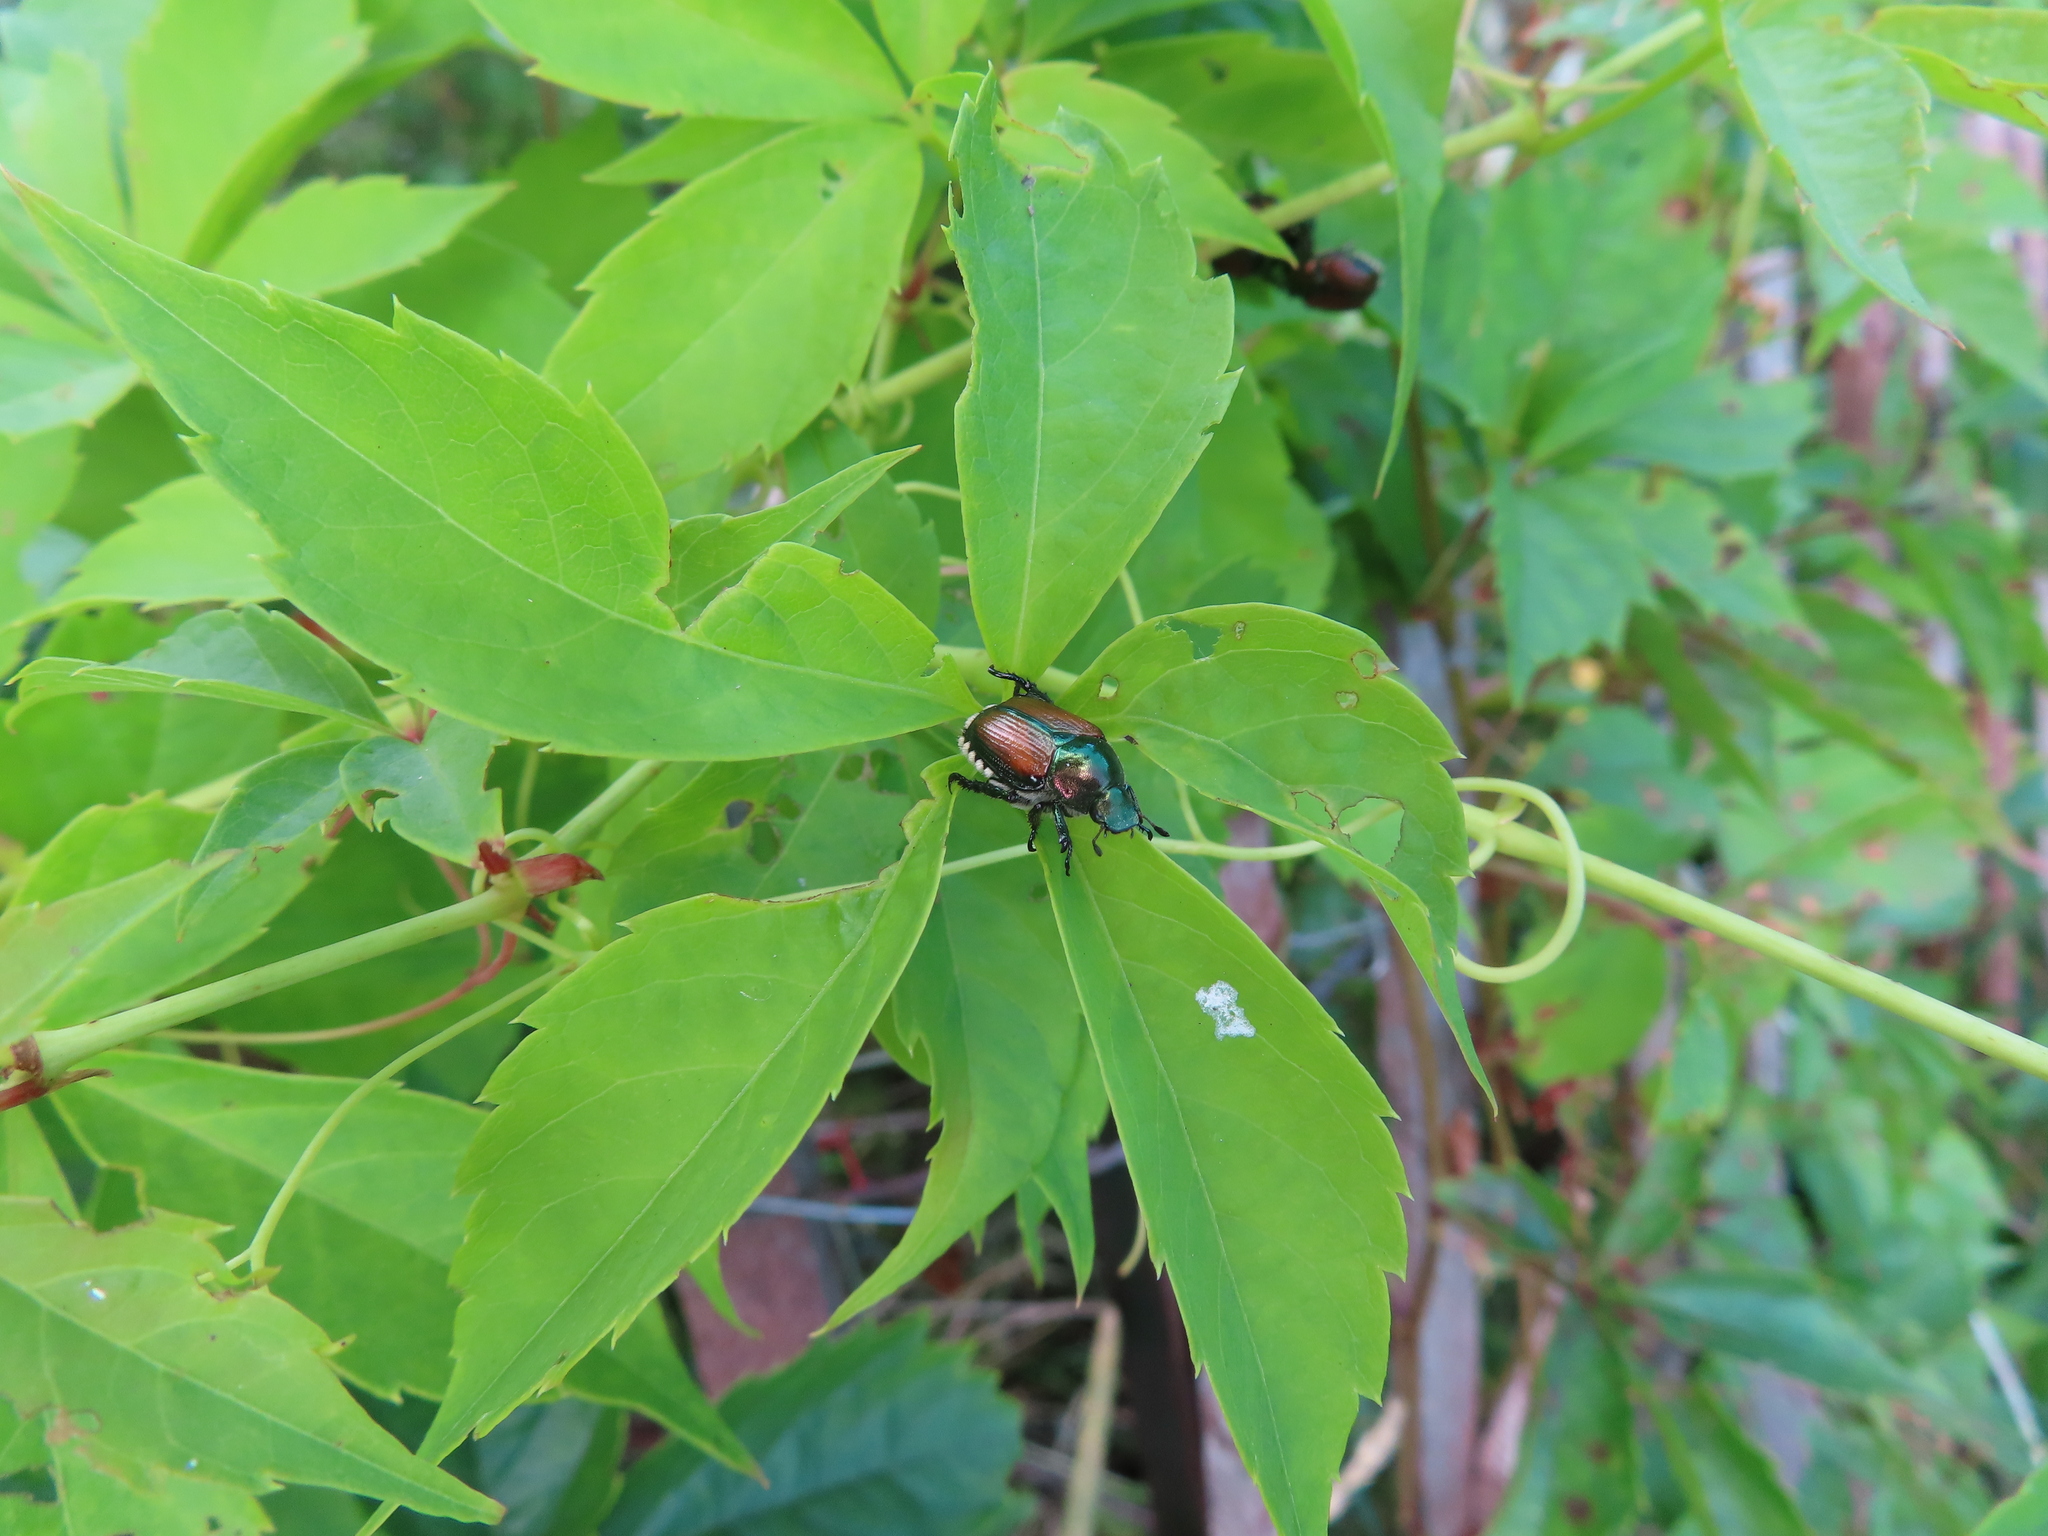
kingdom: Animalia
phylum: Arthropoda
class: Insecta
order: Coleoptera
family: Scarabaeidae
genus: Popillia
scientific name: Popillia japonica
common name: Japanese beetle
